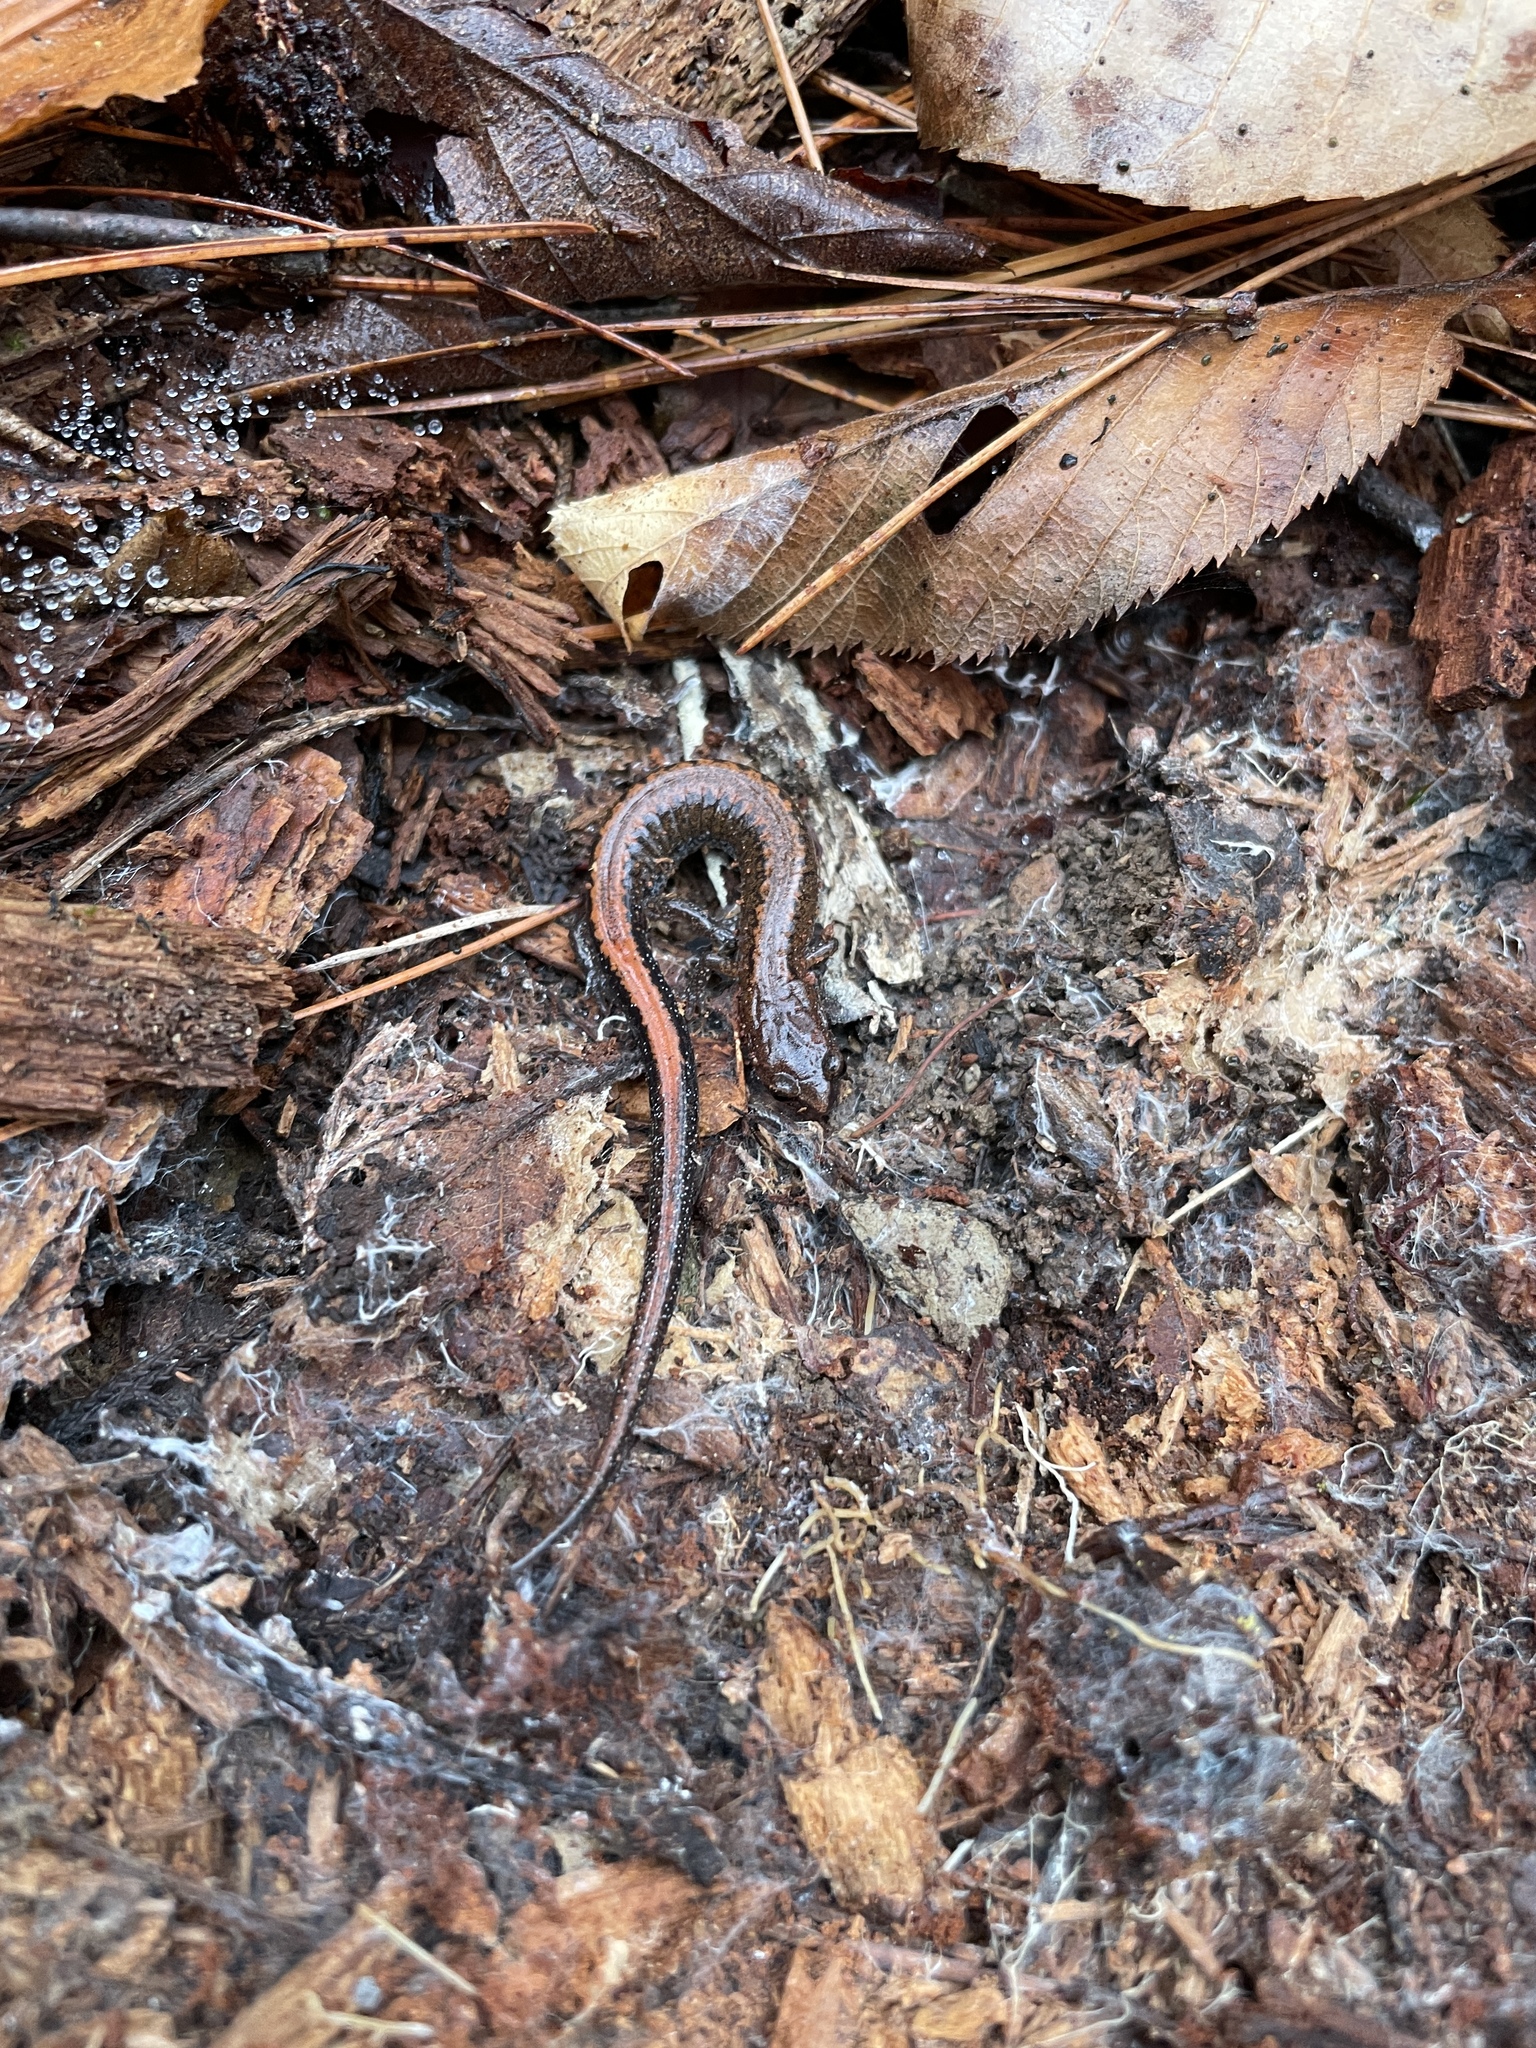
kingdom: Animalia
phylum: Chordata
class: Amphibia
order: Caudata
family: Plethodontidae
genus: Plethodon
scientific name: Plethodon serratus
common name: Southern red-backed salamander
